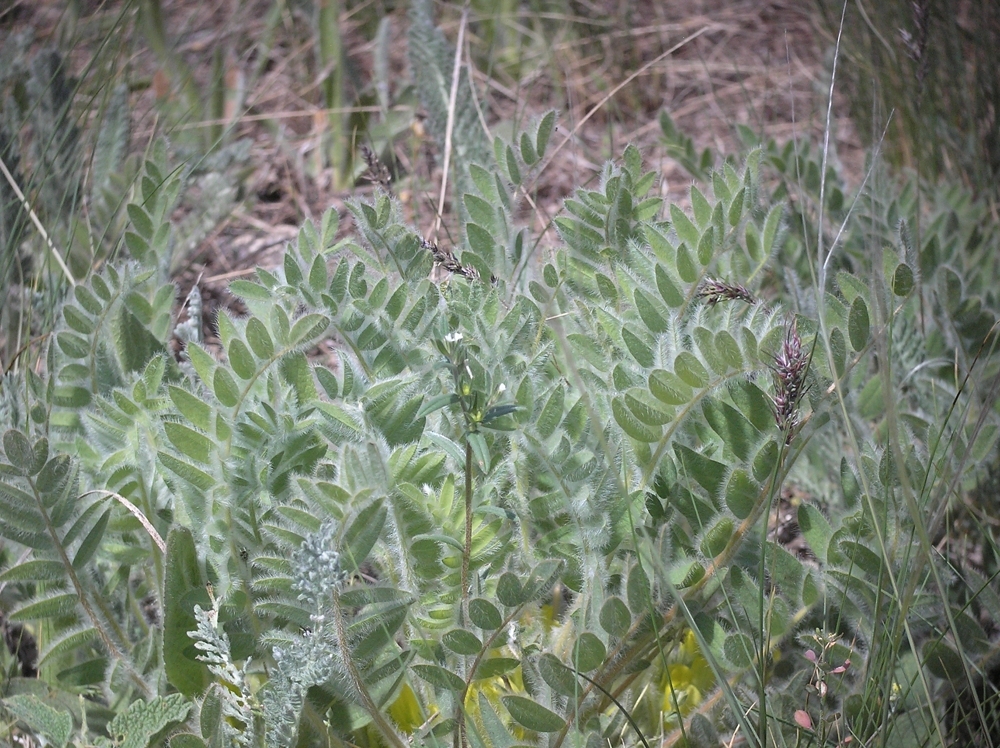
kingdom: Plantae
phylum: Tracheophyta
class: Magnoliopsida
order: Fabales
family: Fabaceae
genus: Astragalus
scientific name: Astragalus exscapus
